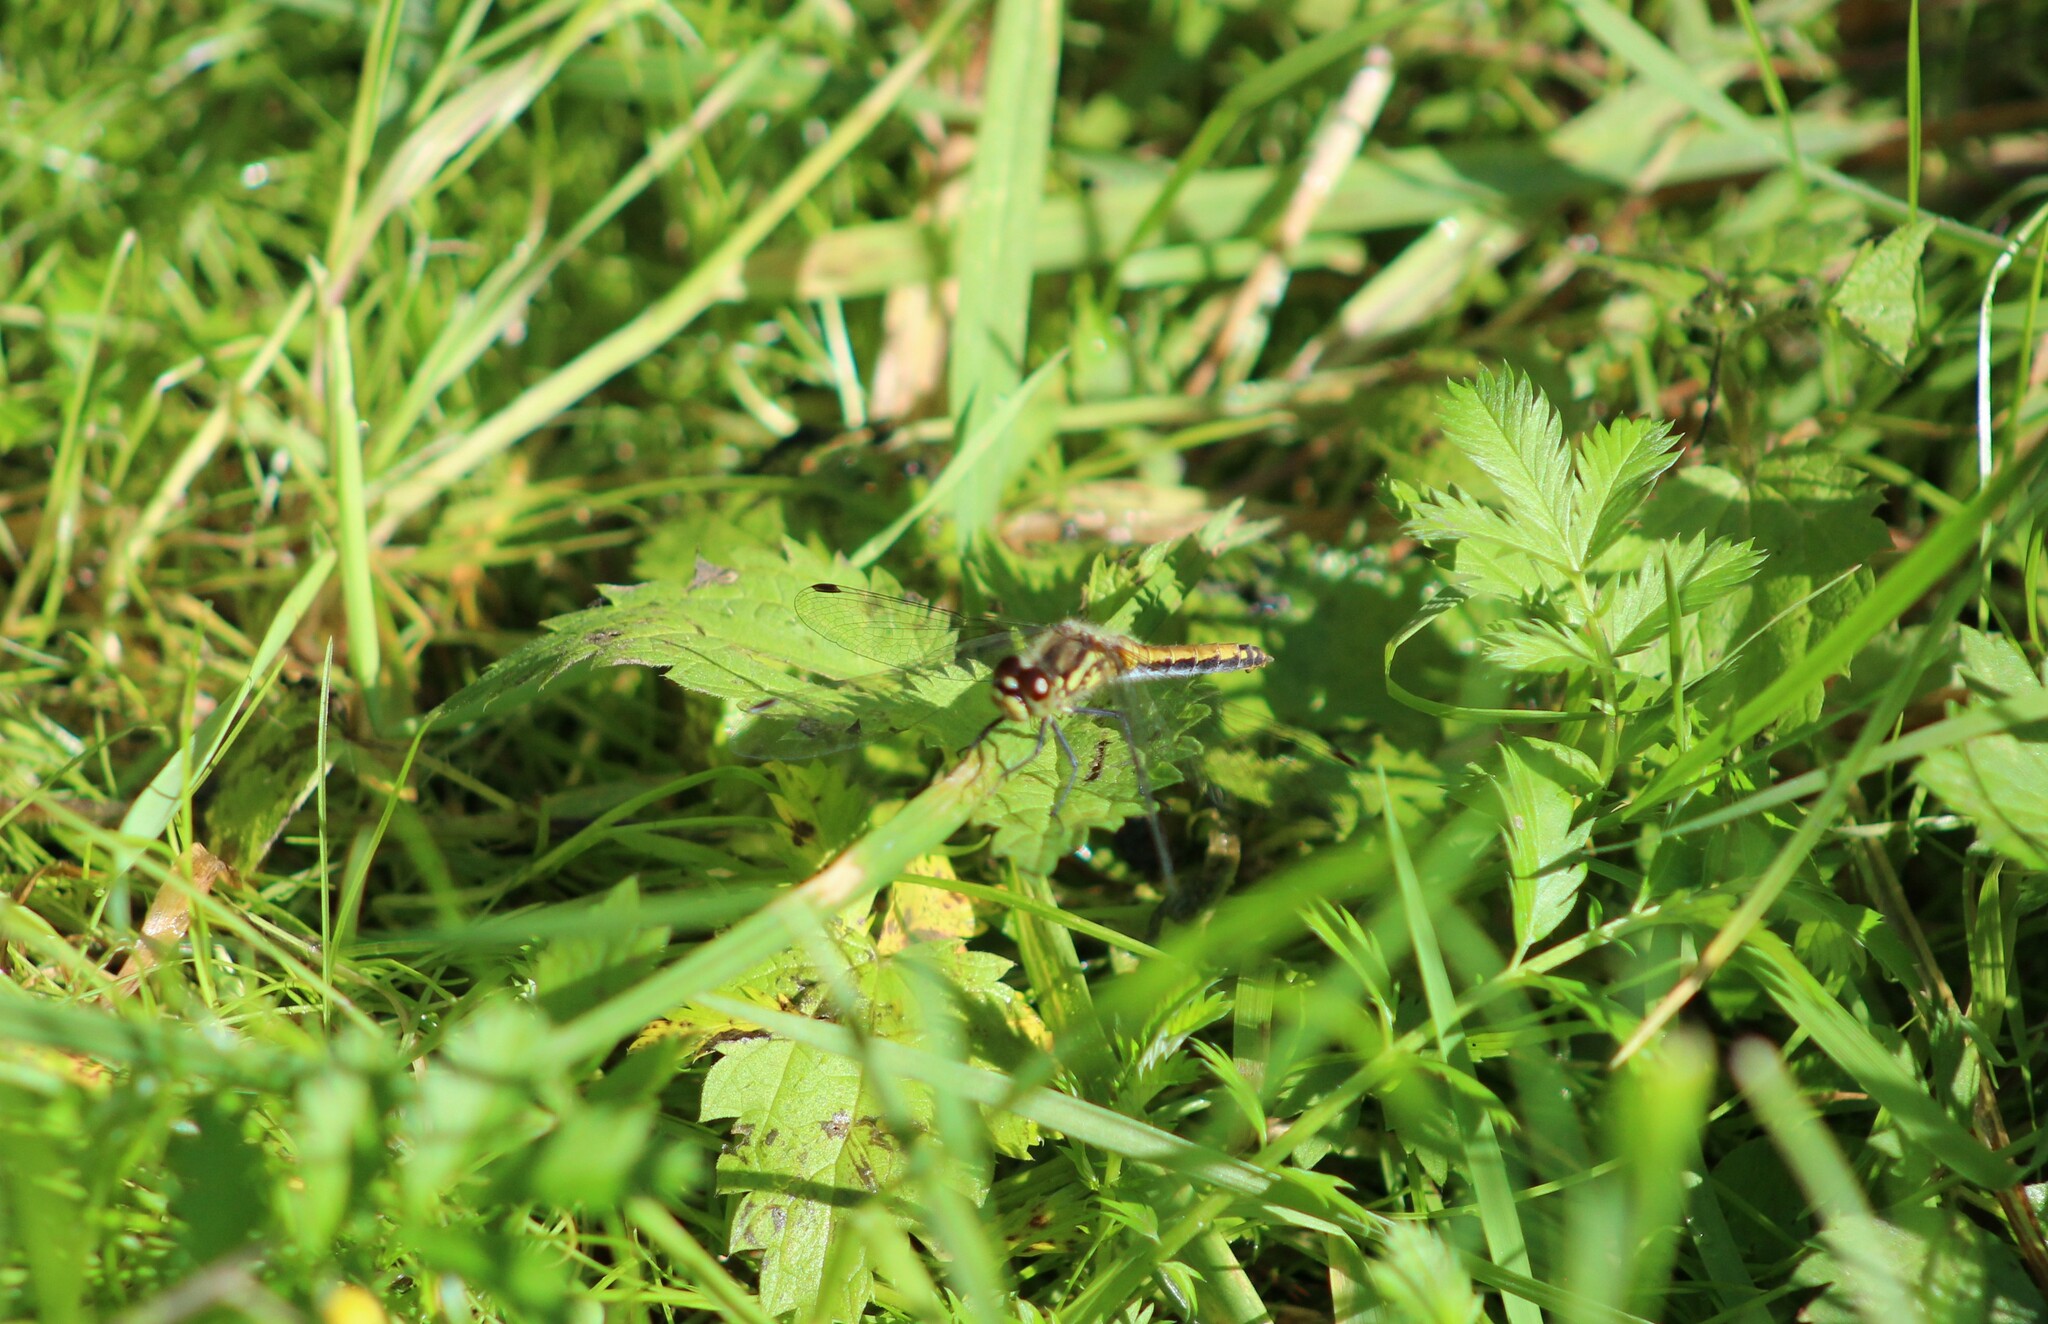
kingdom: Animalia
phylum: Arthropoda
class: Insecta
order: Odonata
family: Libellulidae
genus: Sympetrum
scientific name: Sympetrum danae
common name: Black darter
